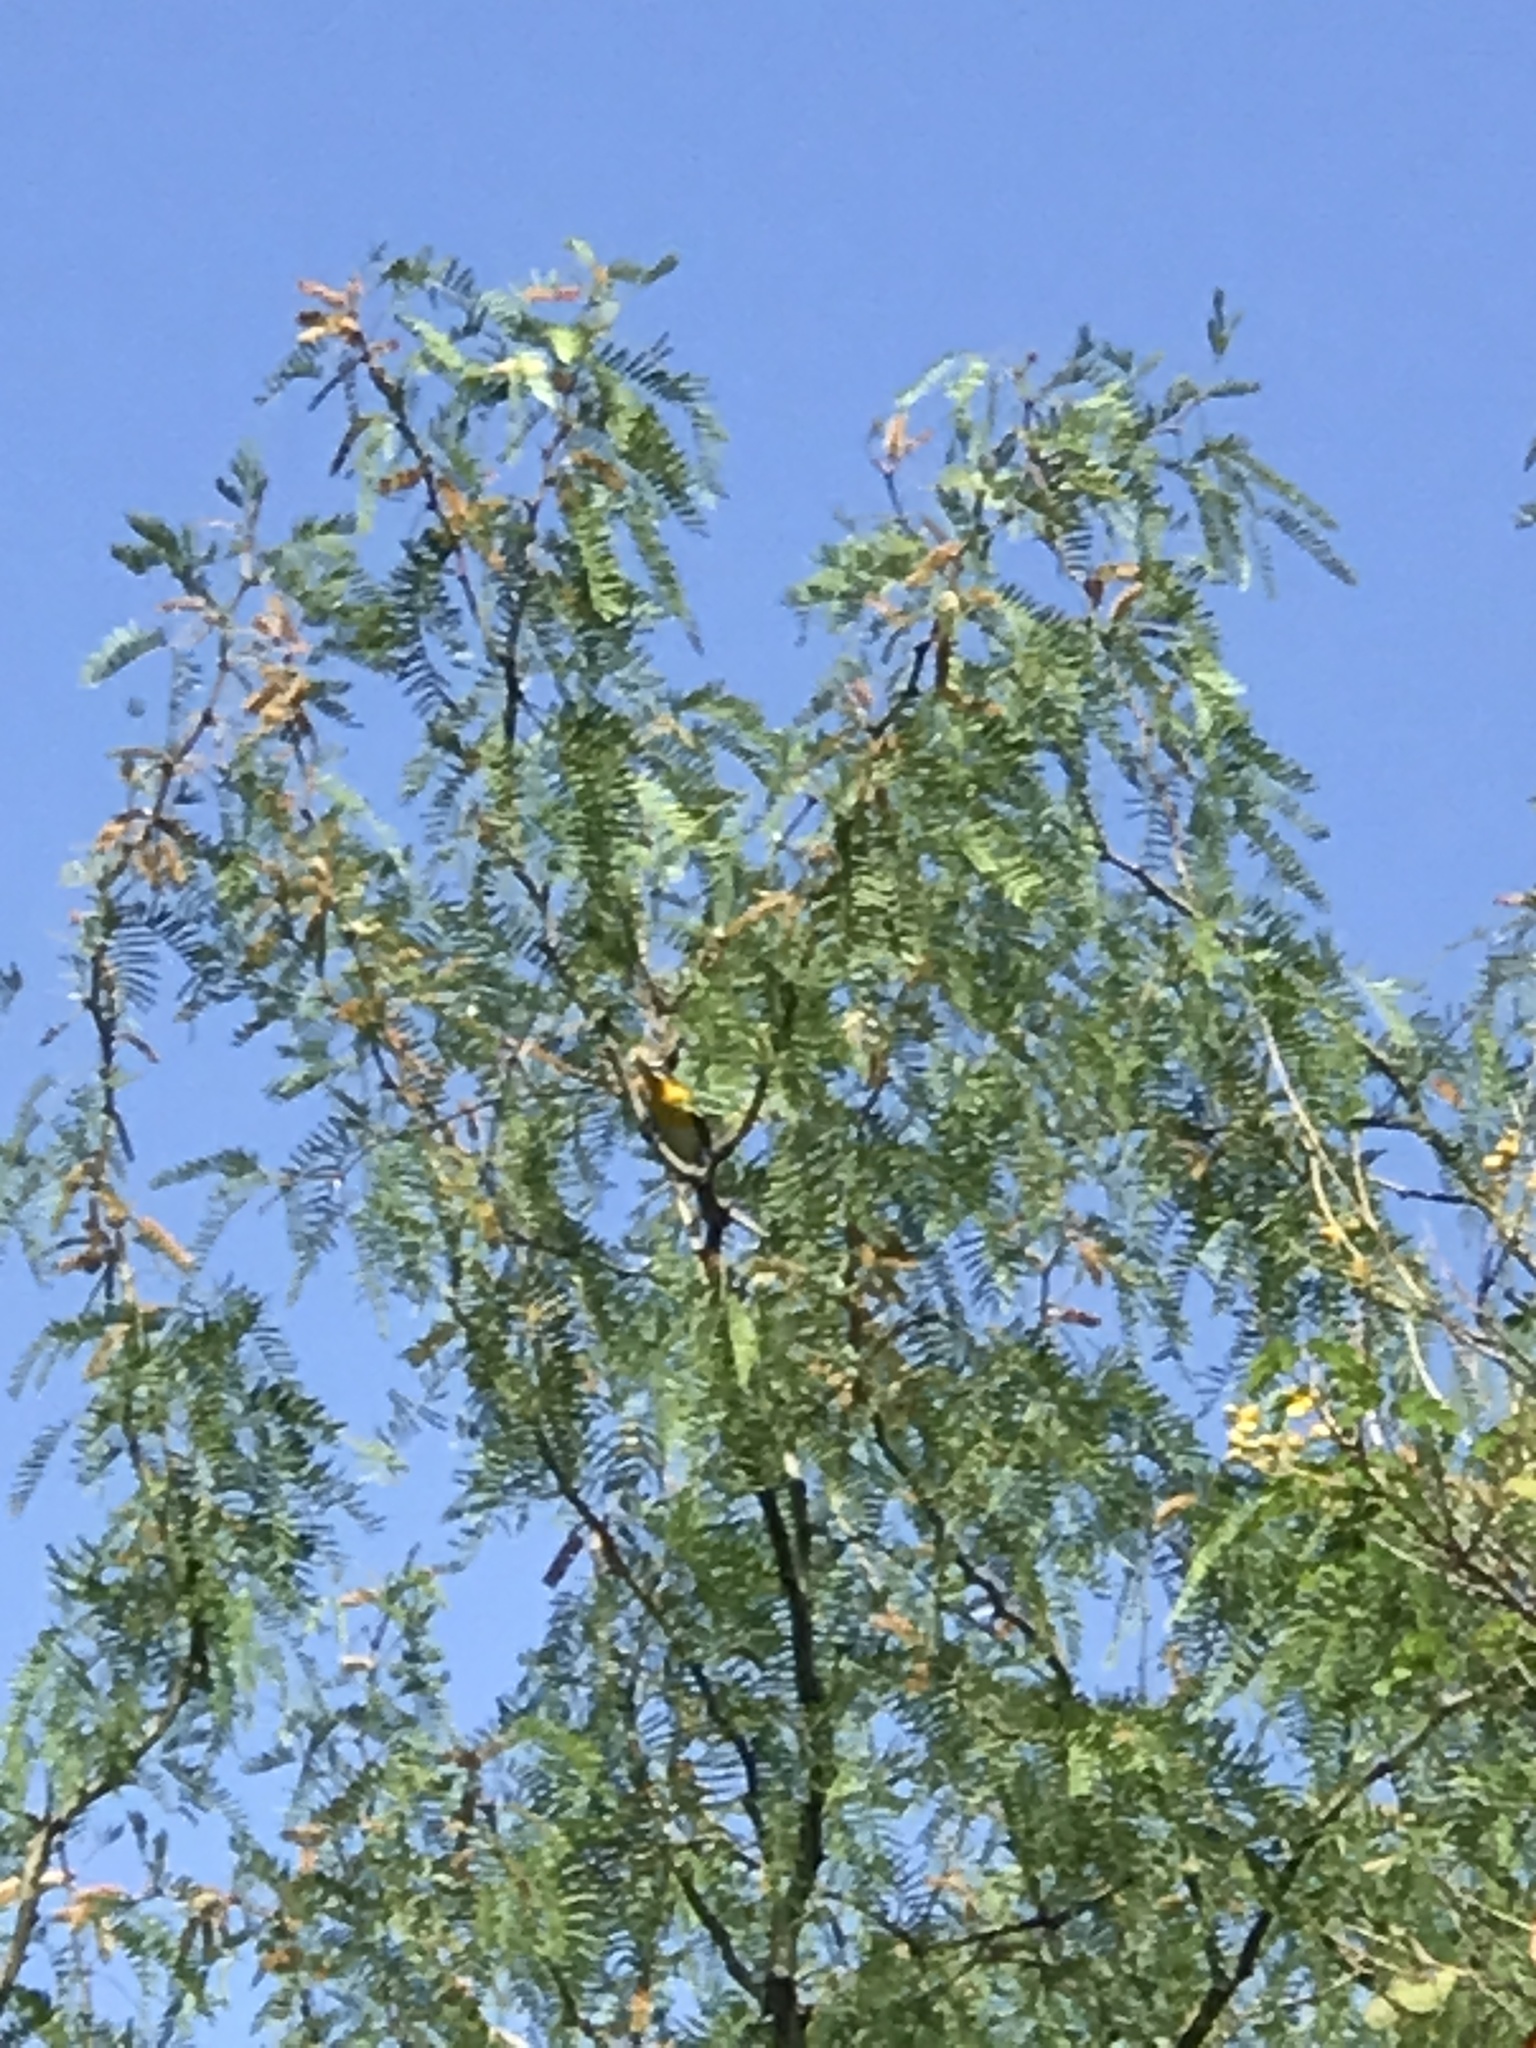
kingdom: Animalia
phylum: Chordata
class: Aves
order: Passeriformes
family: Parulidae
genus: Icteria
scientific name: Icteria virens
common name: Yellow-breasted chat
